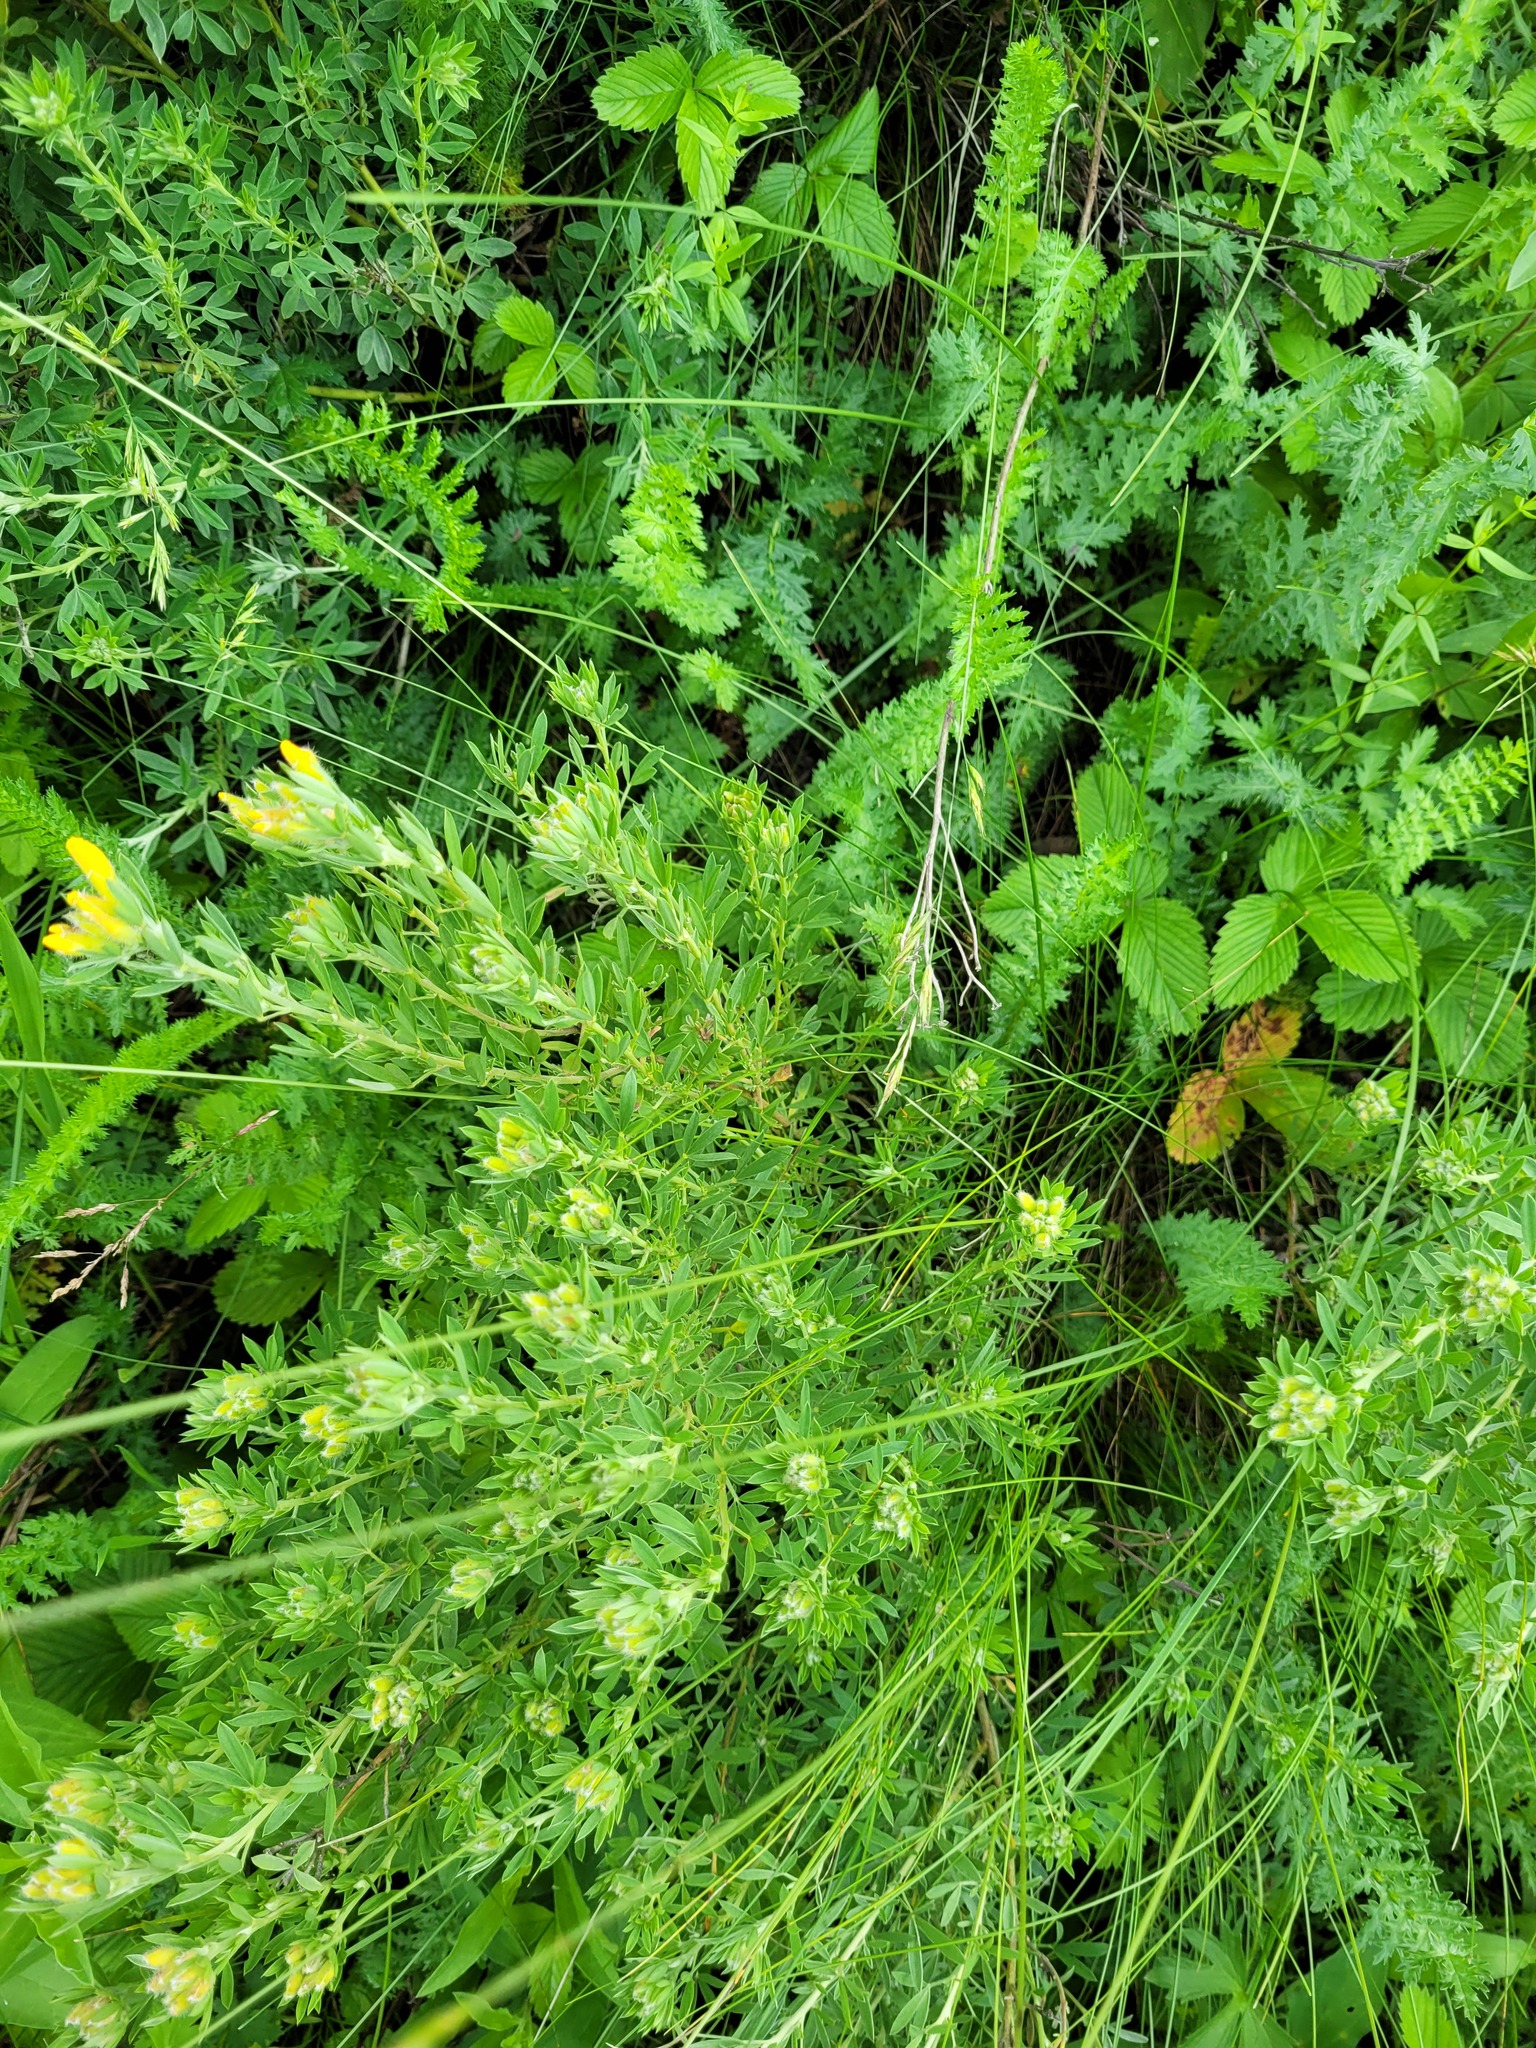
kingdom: Plantae
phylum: Tracheophyta
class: Magnoliopsida
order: Fabales
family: Fabaceae
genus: Chamaecytisus
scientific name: Chamaecytisus austriacus
